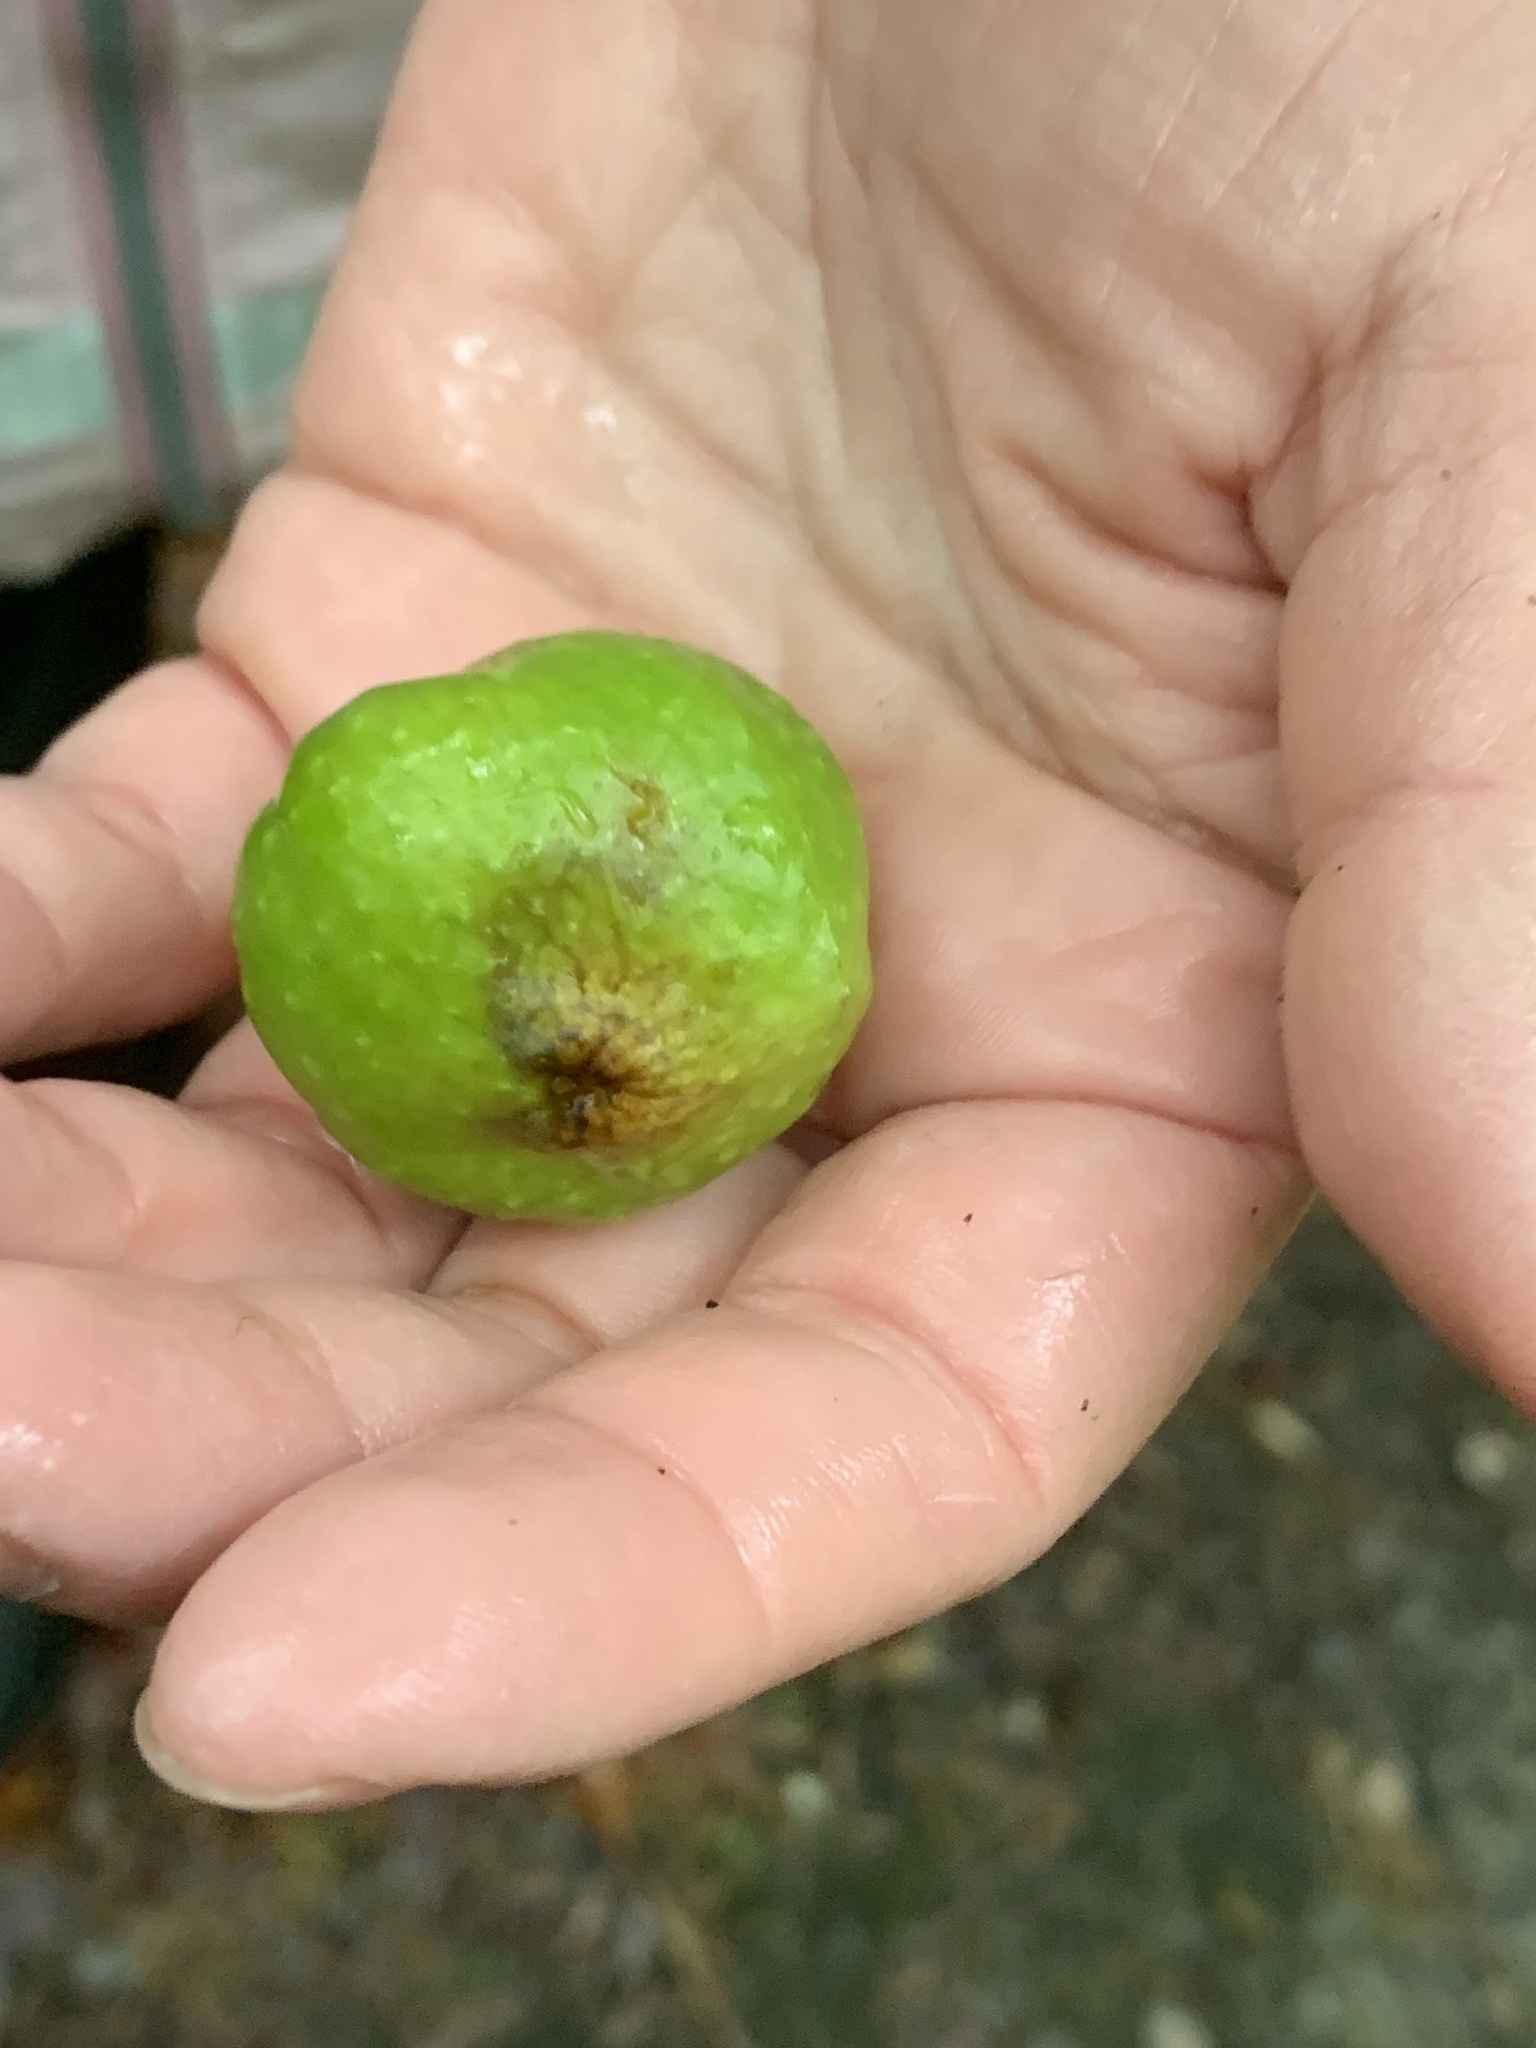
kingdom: Animalia
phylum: Arthropoda
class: Insecta
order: Hymenoptera
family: Cynipidae
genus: Amphibolips
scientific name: Amphibolips
